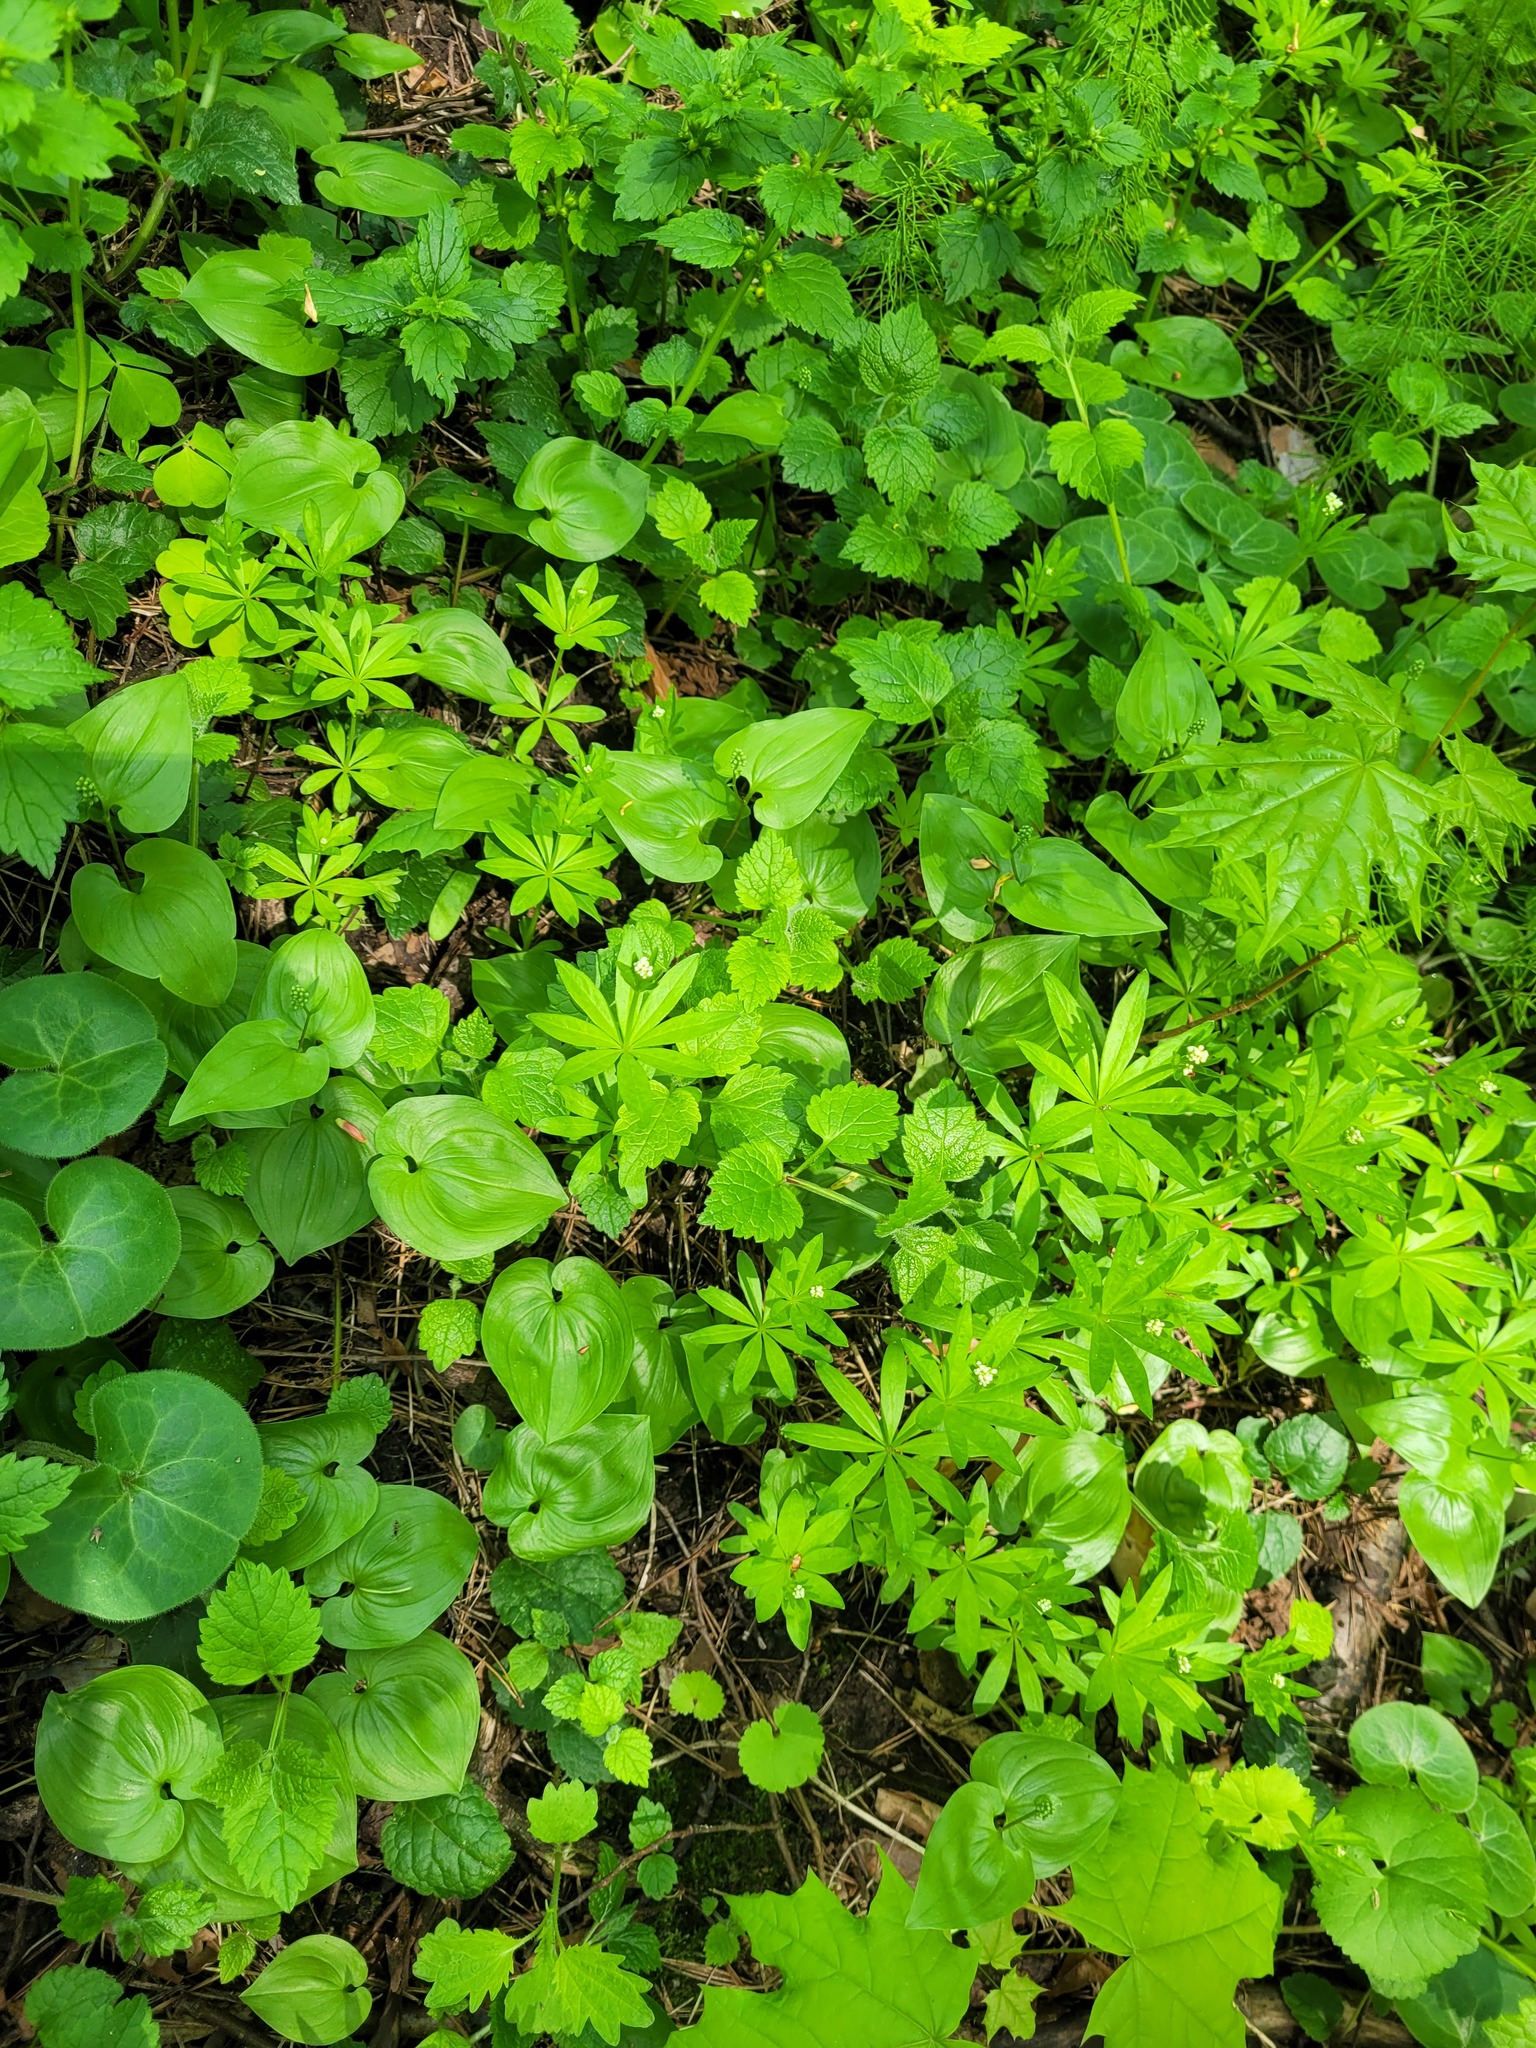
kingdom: Plantae
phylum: Tracheophyta
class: Liliopsida
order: Asparagales
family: Asparagaceae
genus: Maianthemum
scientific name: Maianthemum bifolium
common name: May lily
